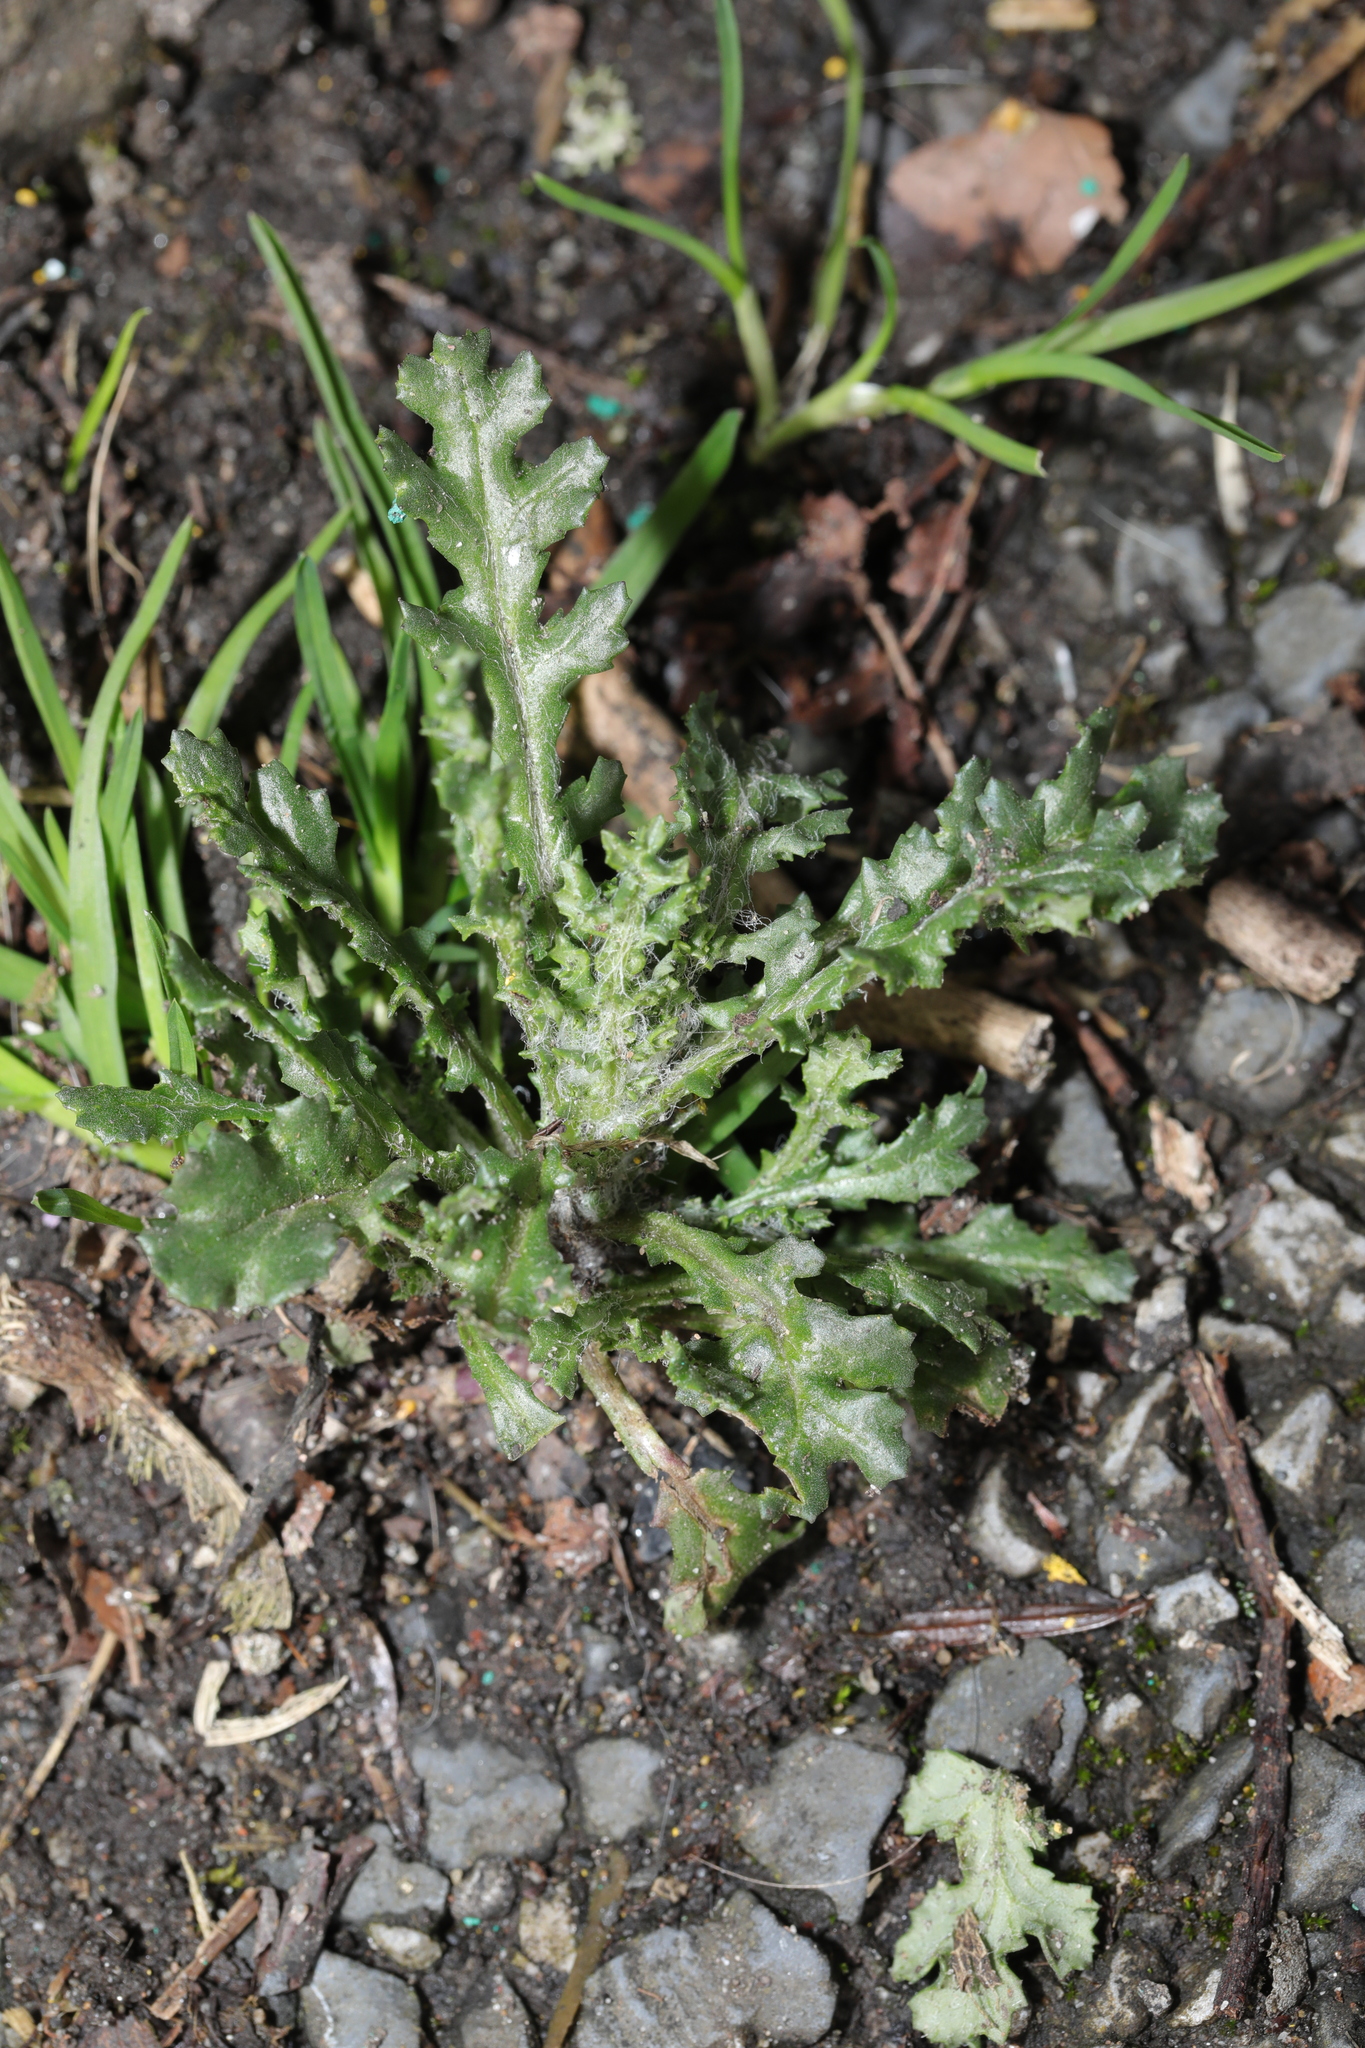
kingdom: Plantae
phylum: Tracheophyta
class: Magnoliopsida
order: Asterales
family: Asteraceae
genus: Senecio
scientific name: Senecio vulgaris
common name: Old-man-in-the-spring
